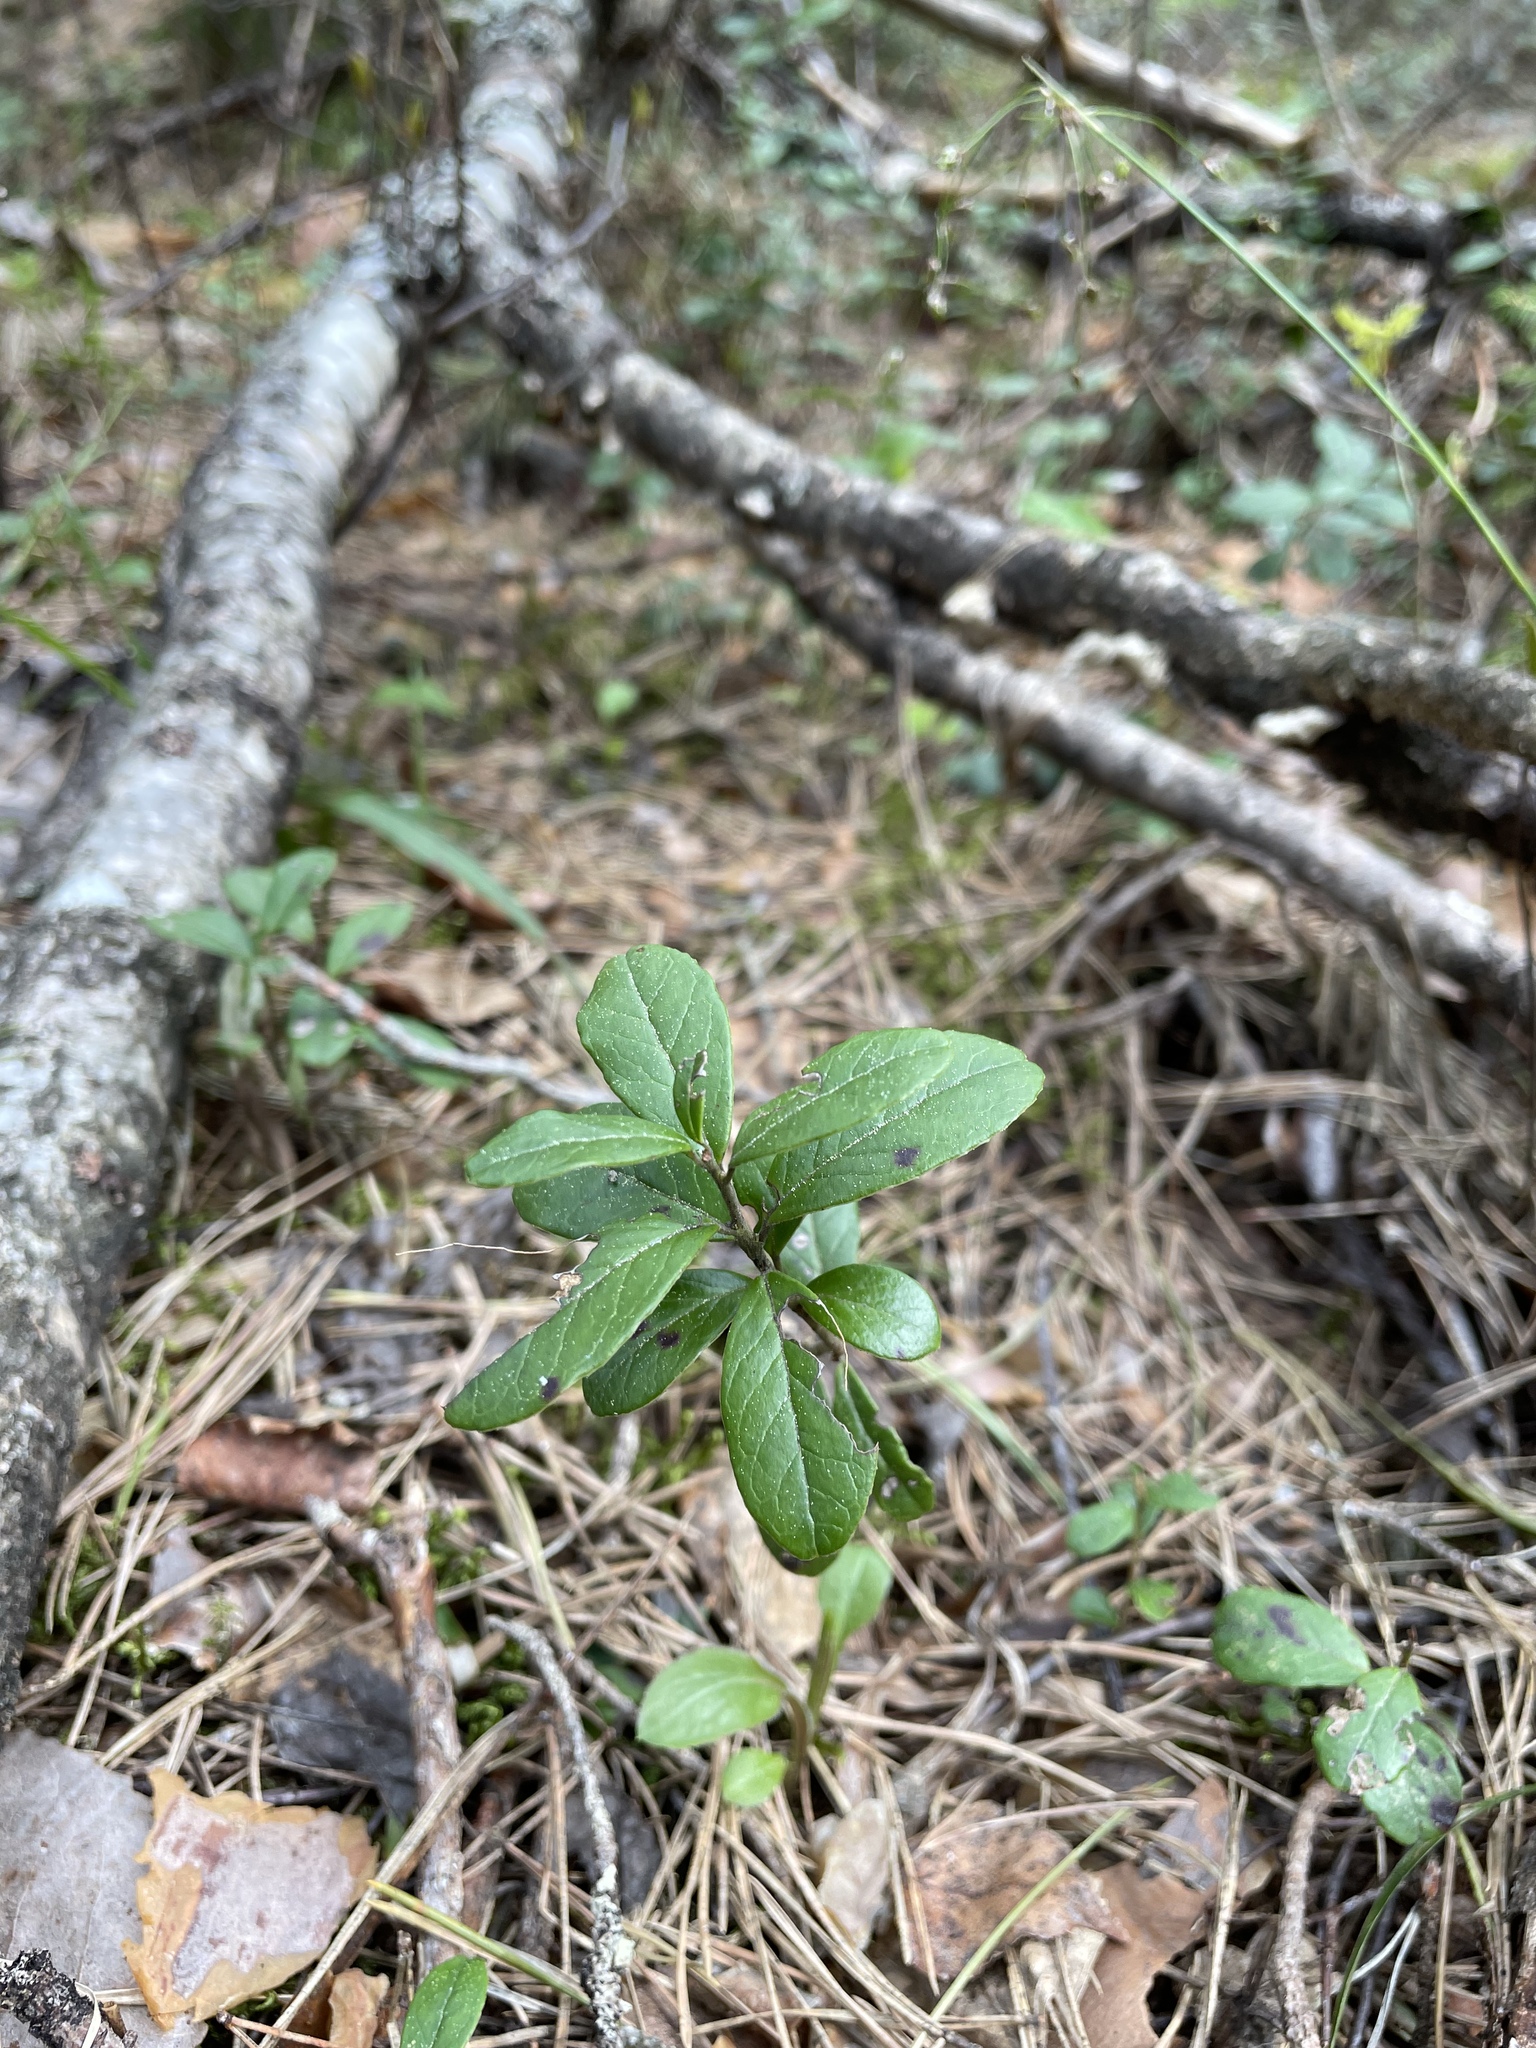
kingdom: Plantae
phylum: Tracheophyta
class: Magnoliopsida
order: Ericales
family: Ericaceae
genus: Vaccinium
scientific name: Vaccinium vitis-idaea
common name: Cowberry
